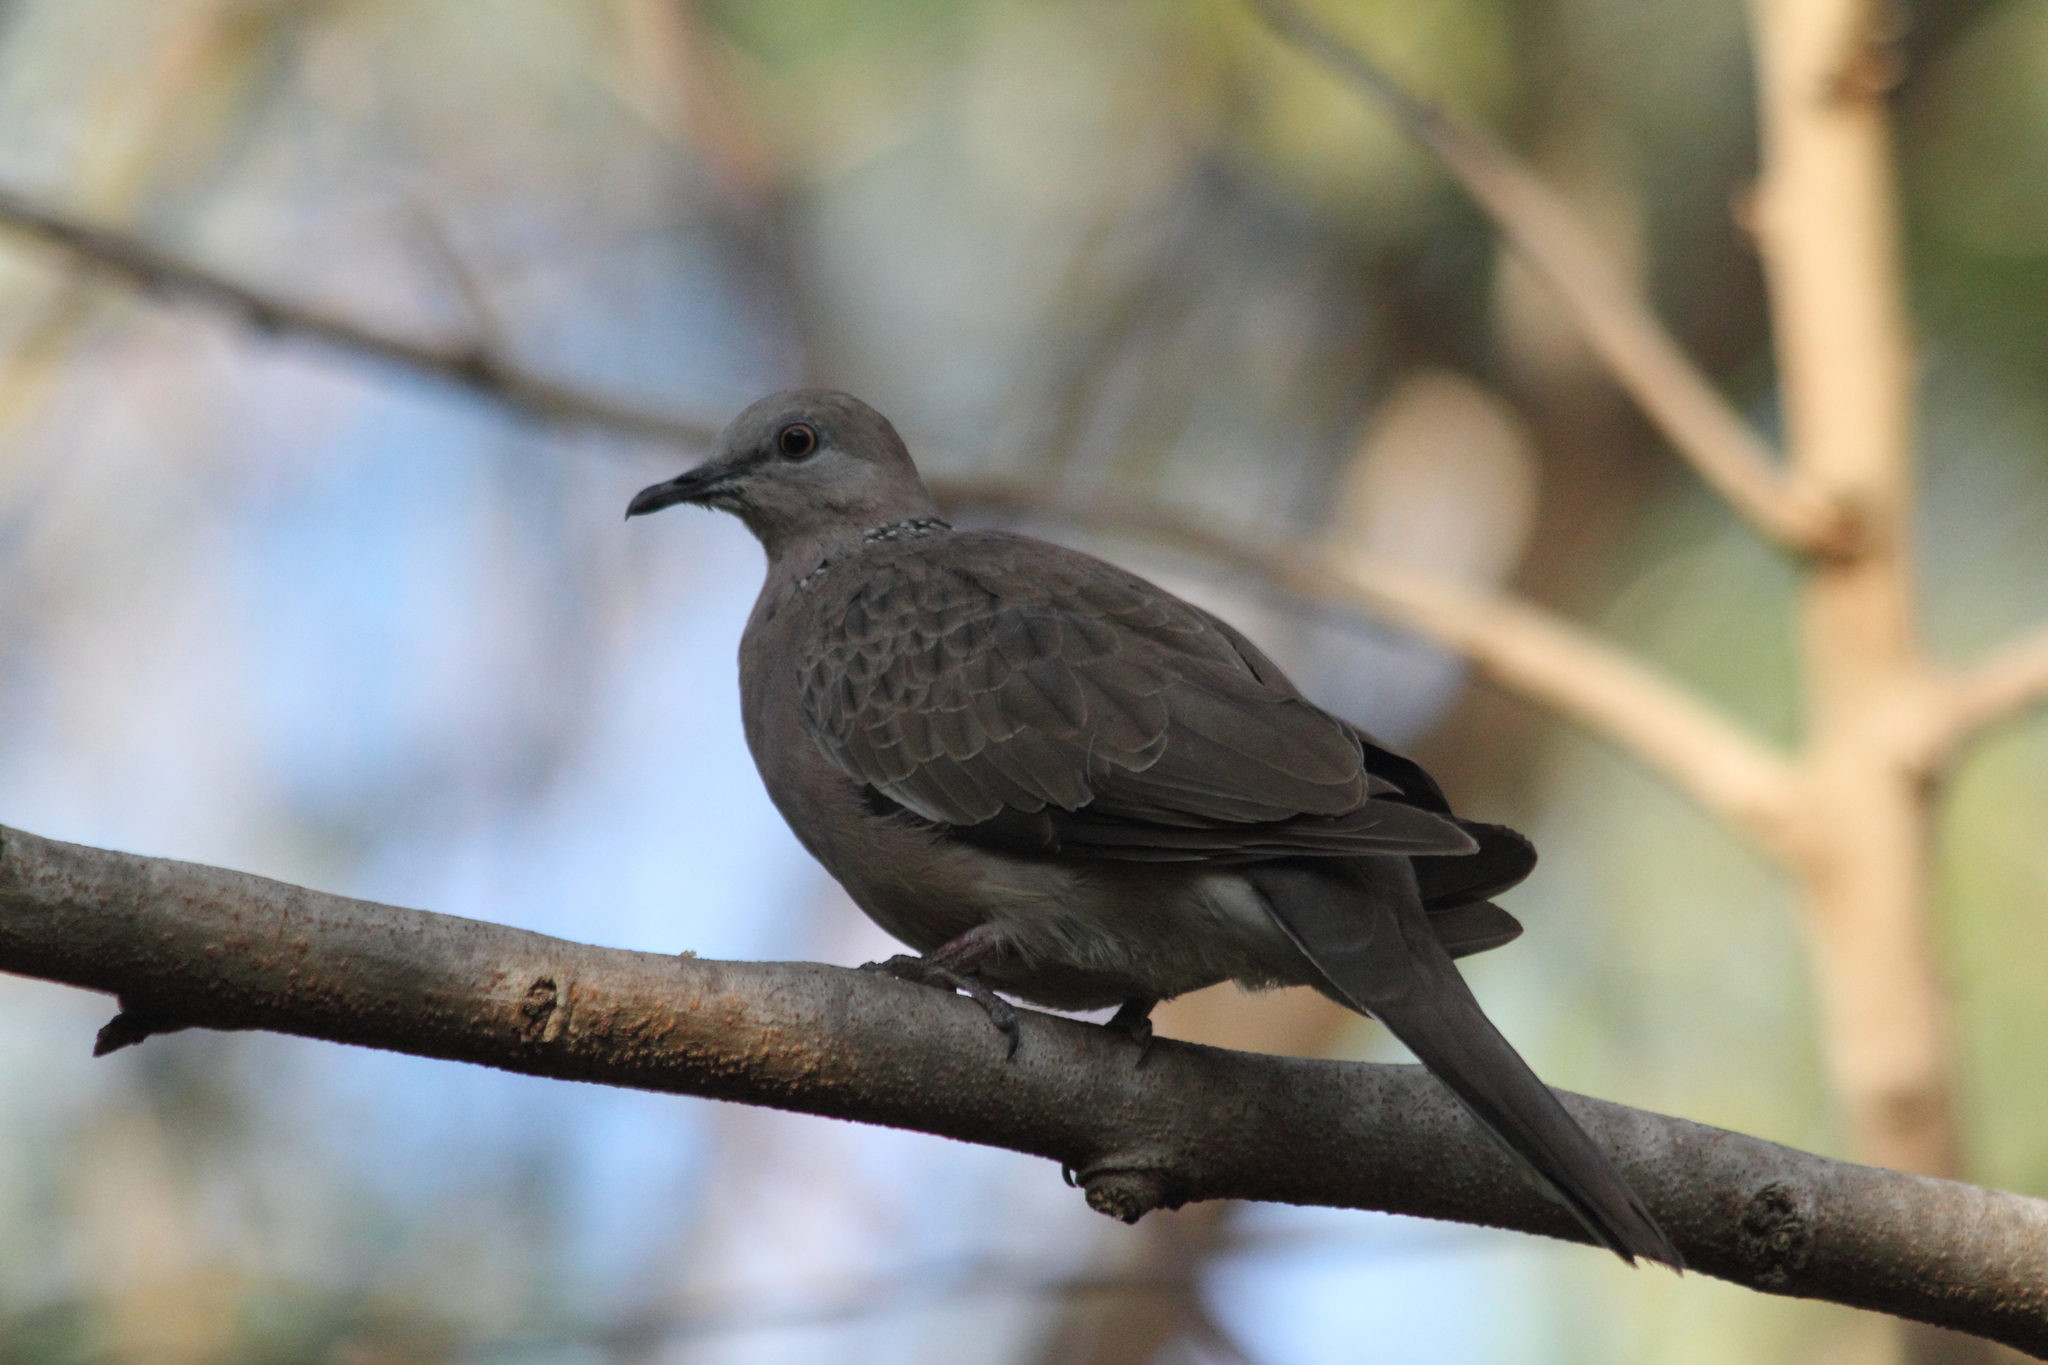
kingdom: Animalia
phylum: Chordata
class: Aves
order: Columbiformes
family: Columbidae
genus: Spilopelia
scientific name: Spilopelia chinensis
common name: Spotted dove
